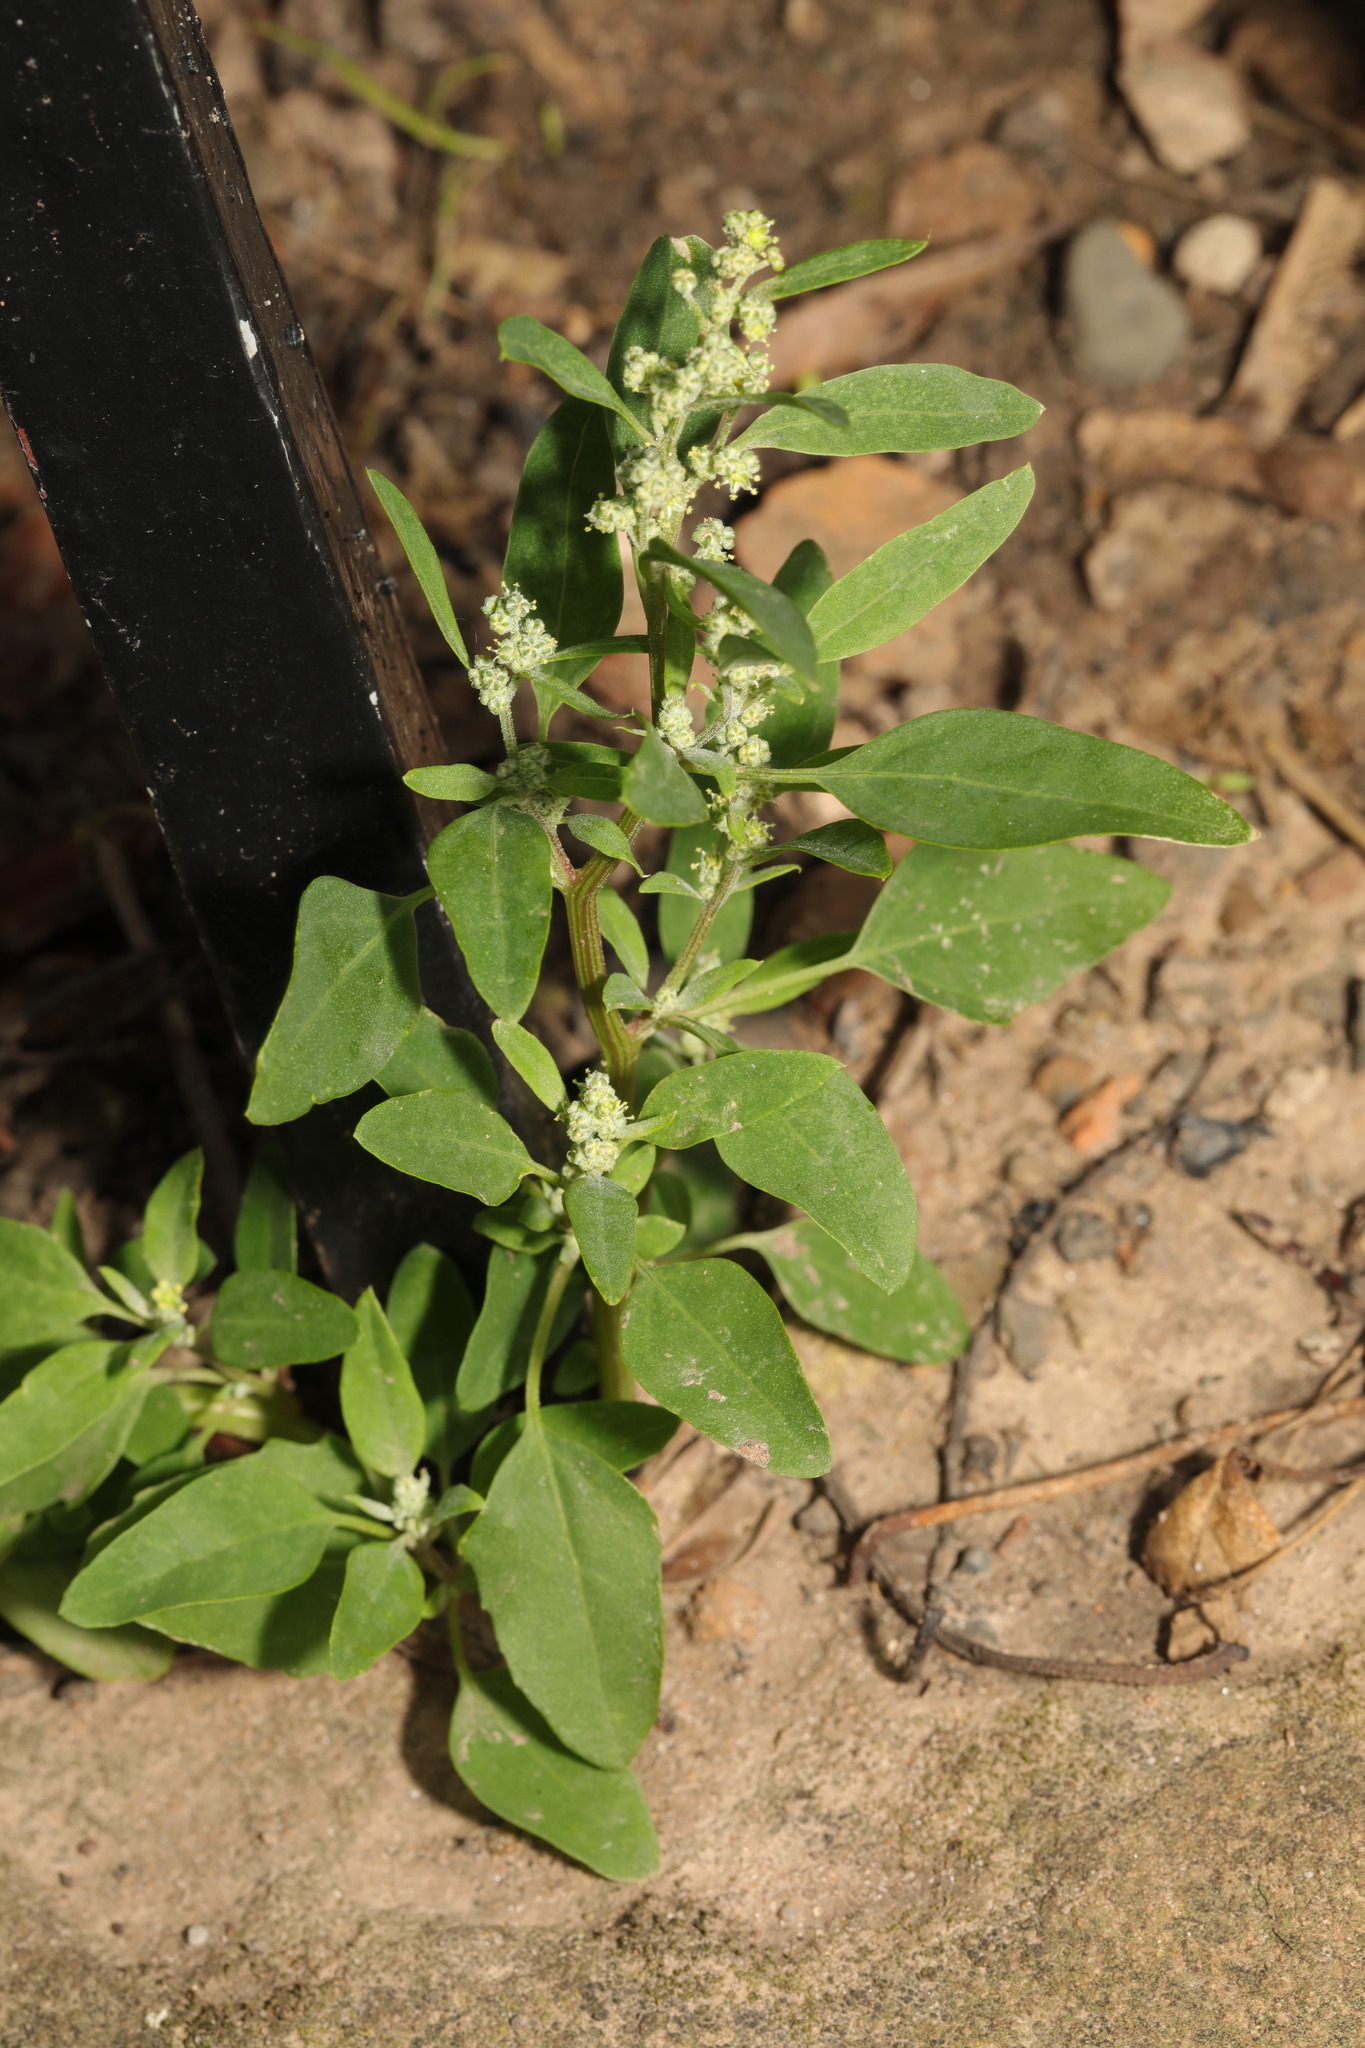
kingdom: Plantae
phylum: Tracheophyta
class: Magnoliopsida
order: Caryophyllales
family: Amaranthaceae
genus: Chenopodium
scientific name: Chenopodium album
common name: Fat-hen
